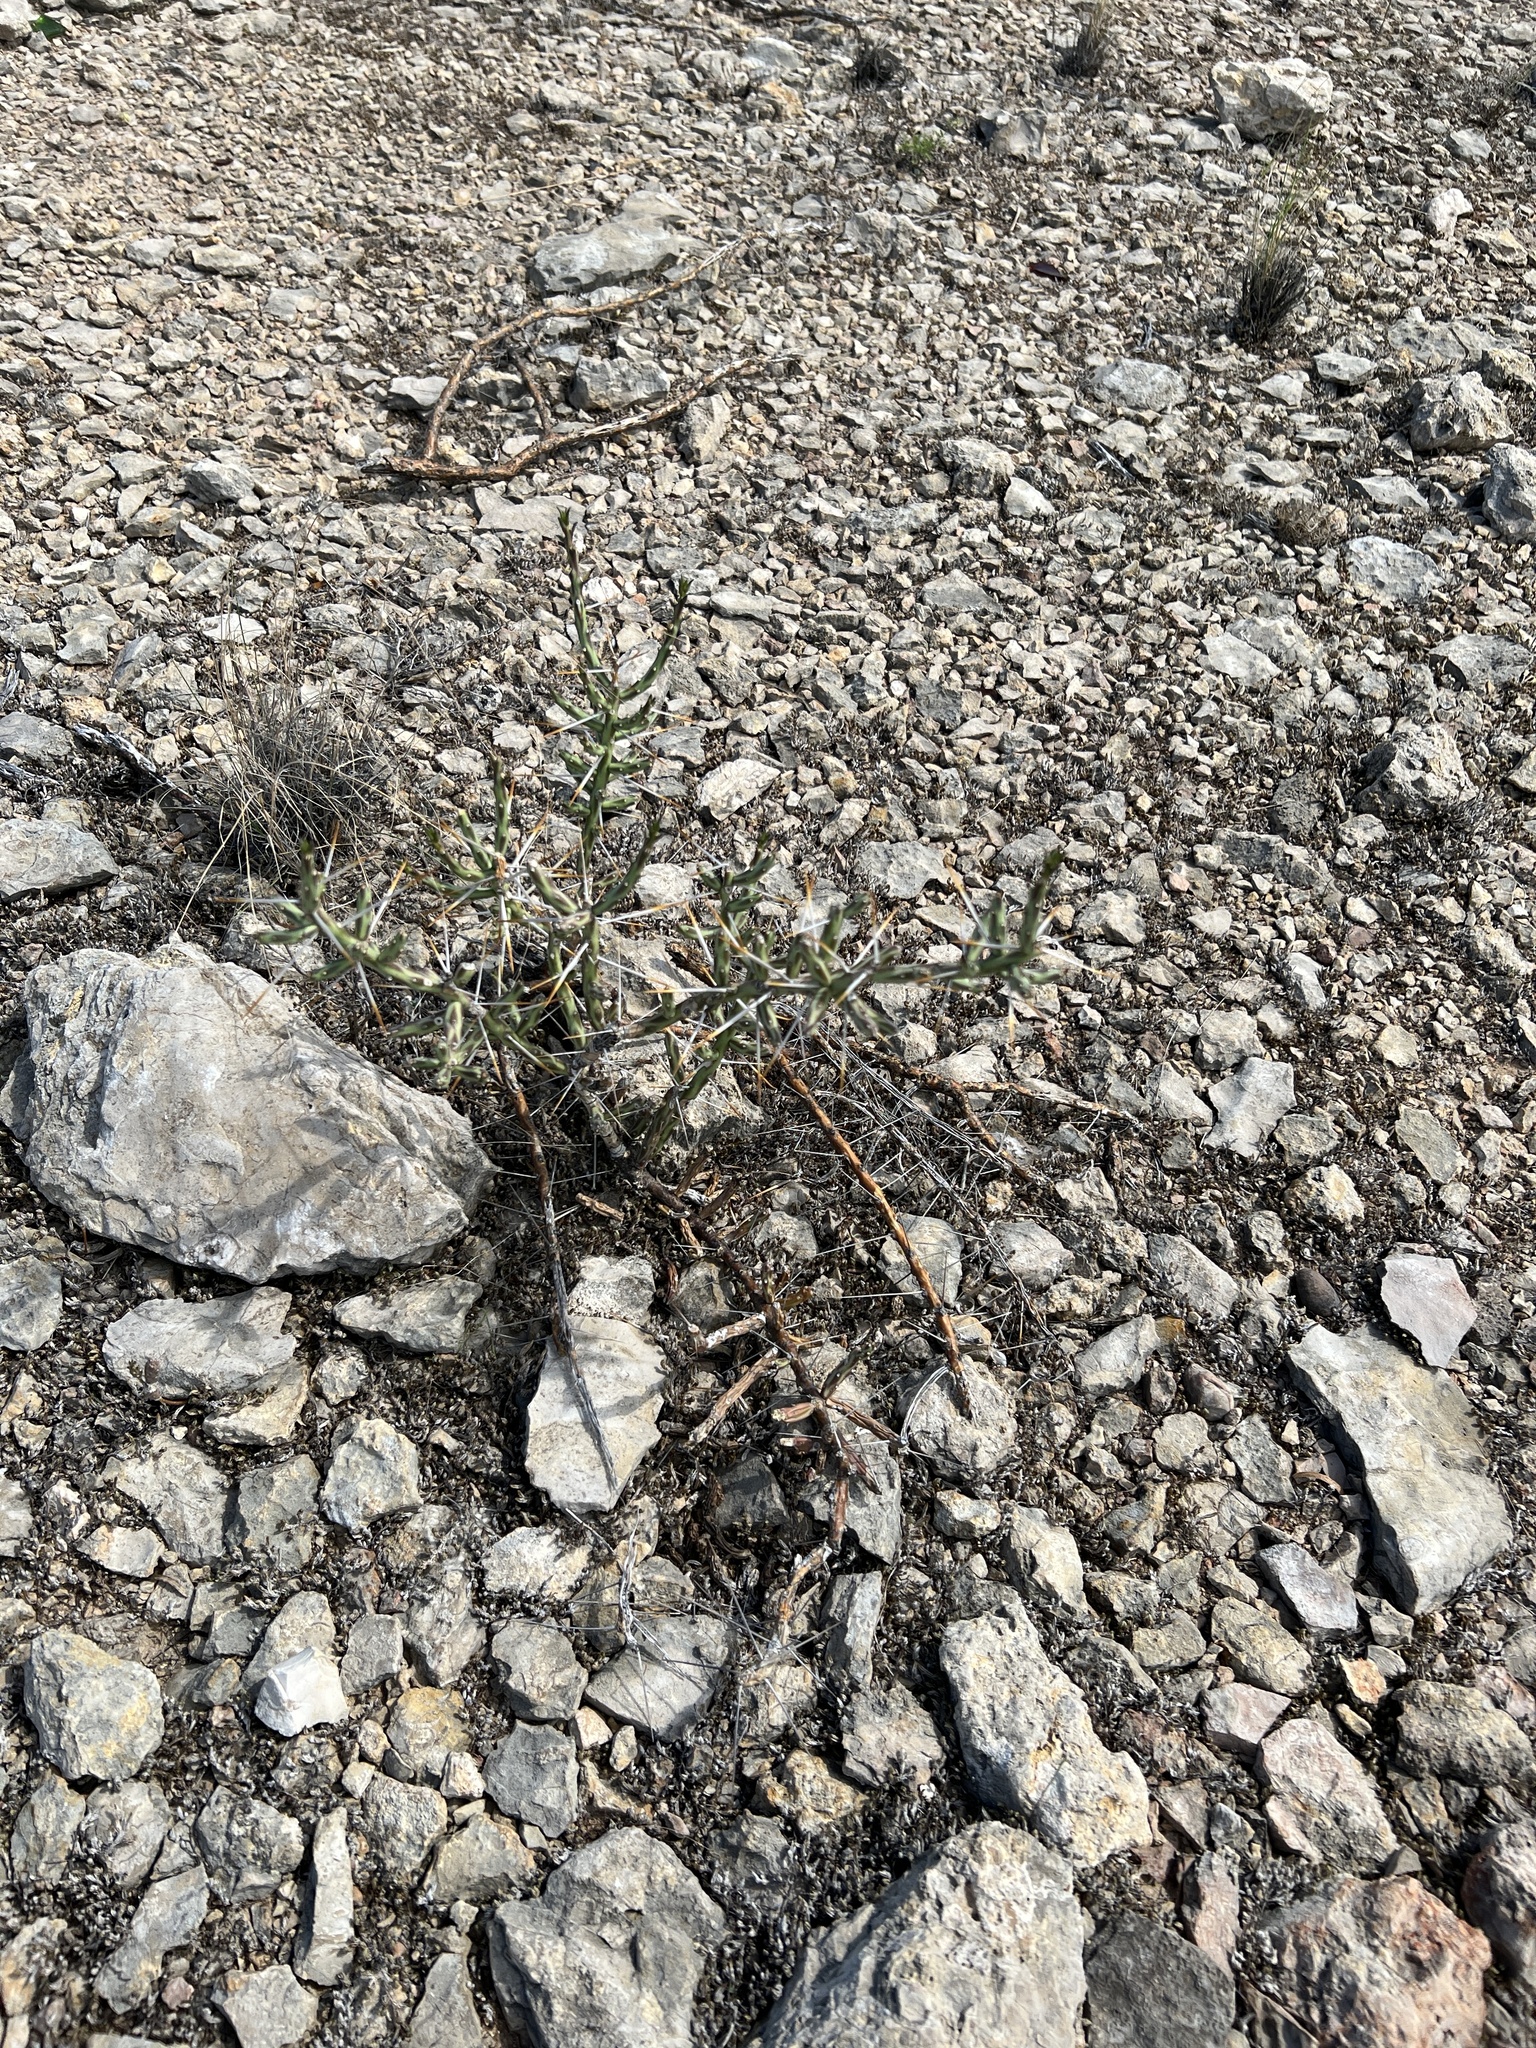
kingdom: Plantae
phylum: Tracheophyta
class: Magnoliopsida
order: Caryophyllales
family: Cactaceae
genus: Cylindropuntia
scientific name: Cylindropuntia leptocaulis
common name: Christmas cactus
